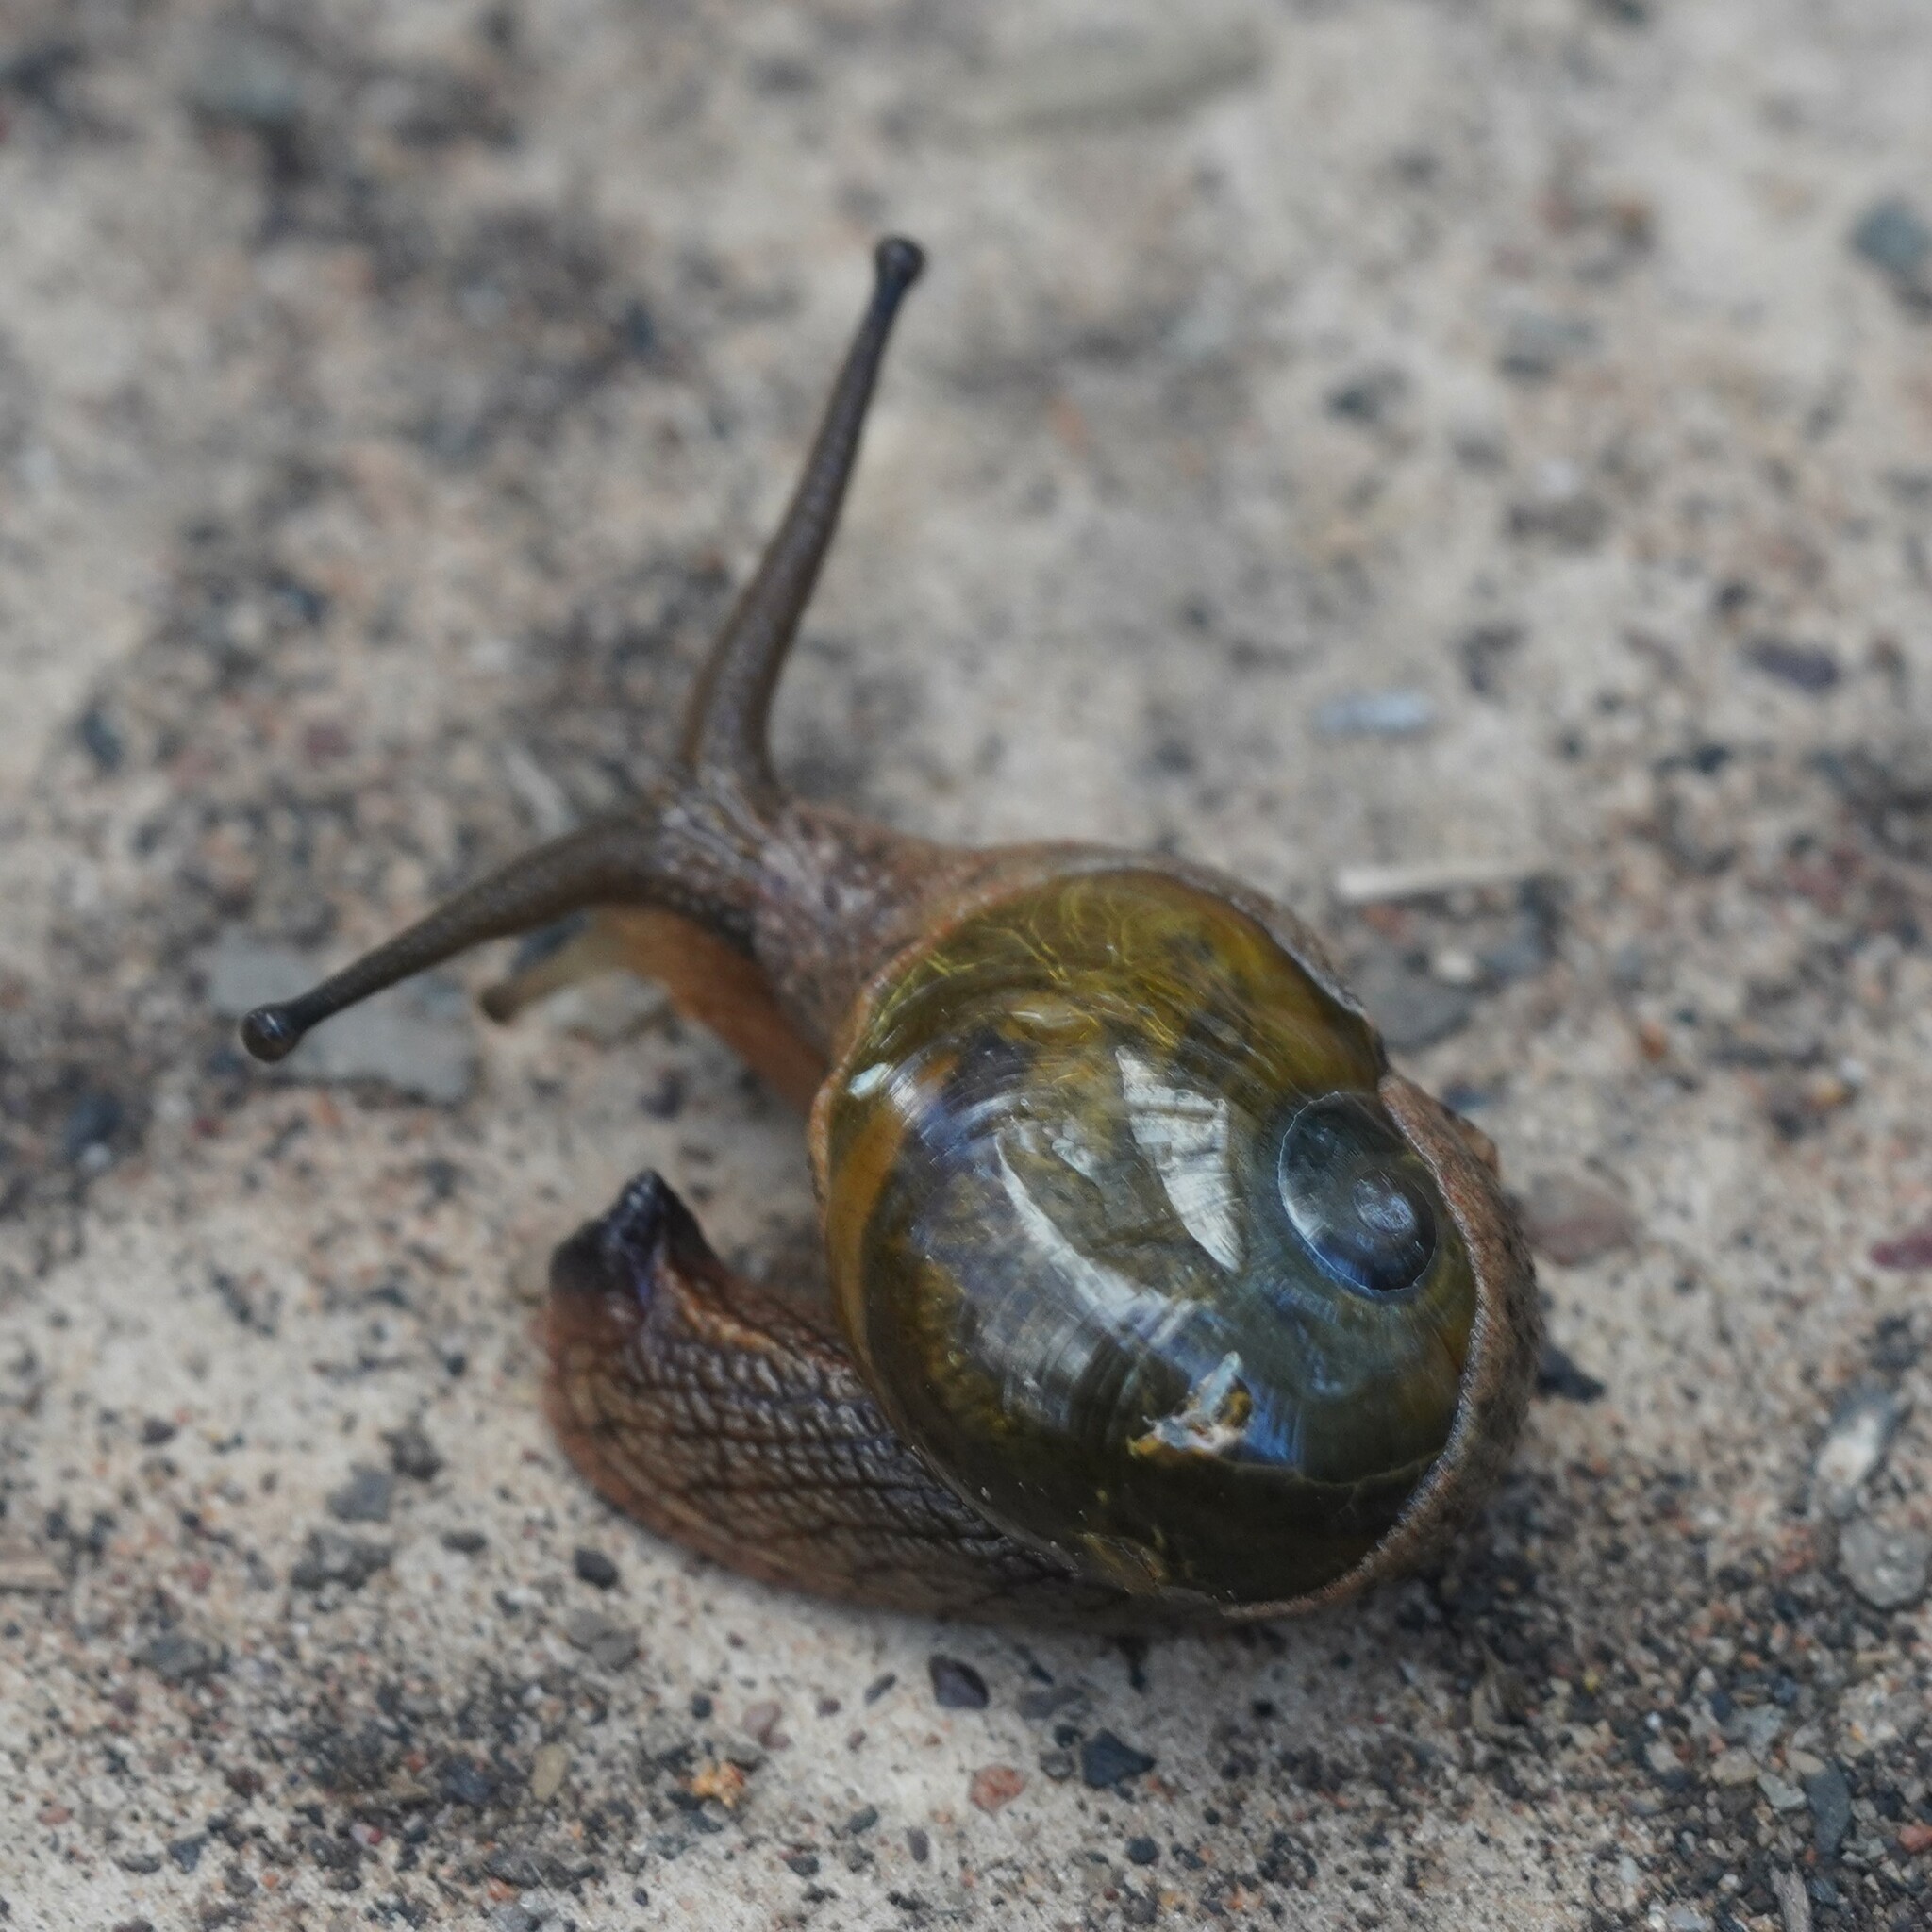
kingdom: Animalia
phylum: Mollusca
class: Gastropoda
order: Stylommatophora
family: Helicarionidae
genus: Stanisicarion
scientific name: Stanisicarion freycineti
